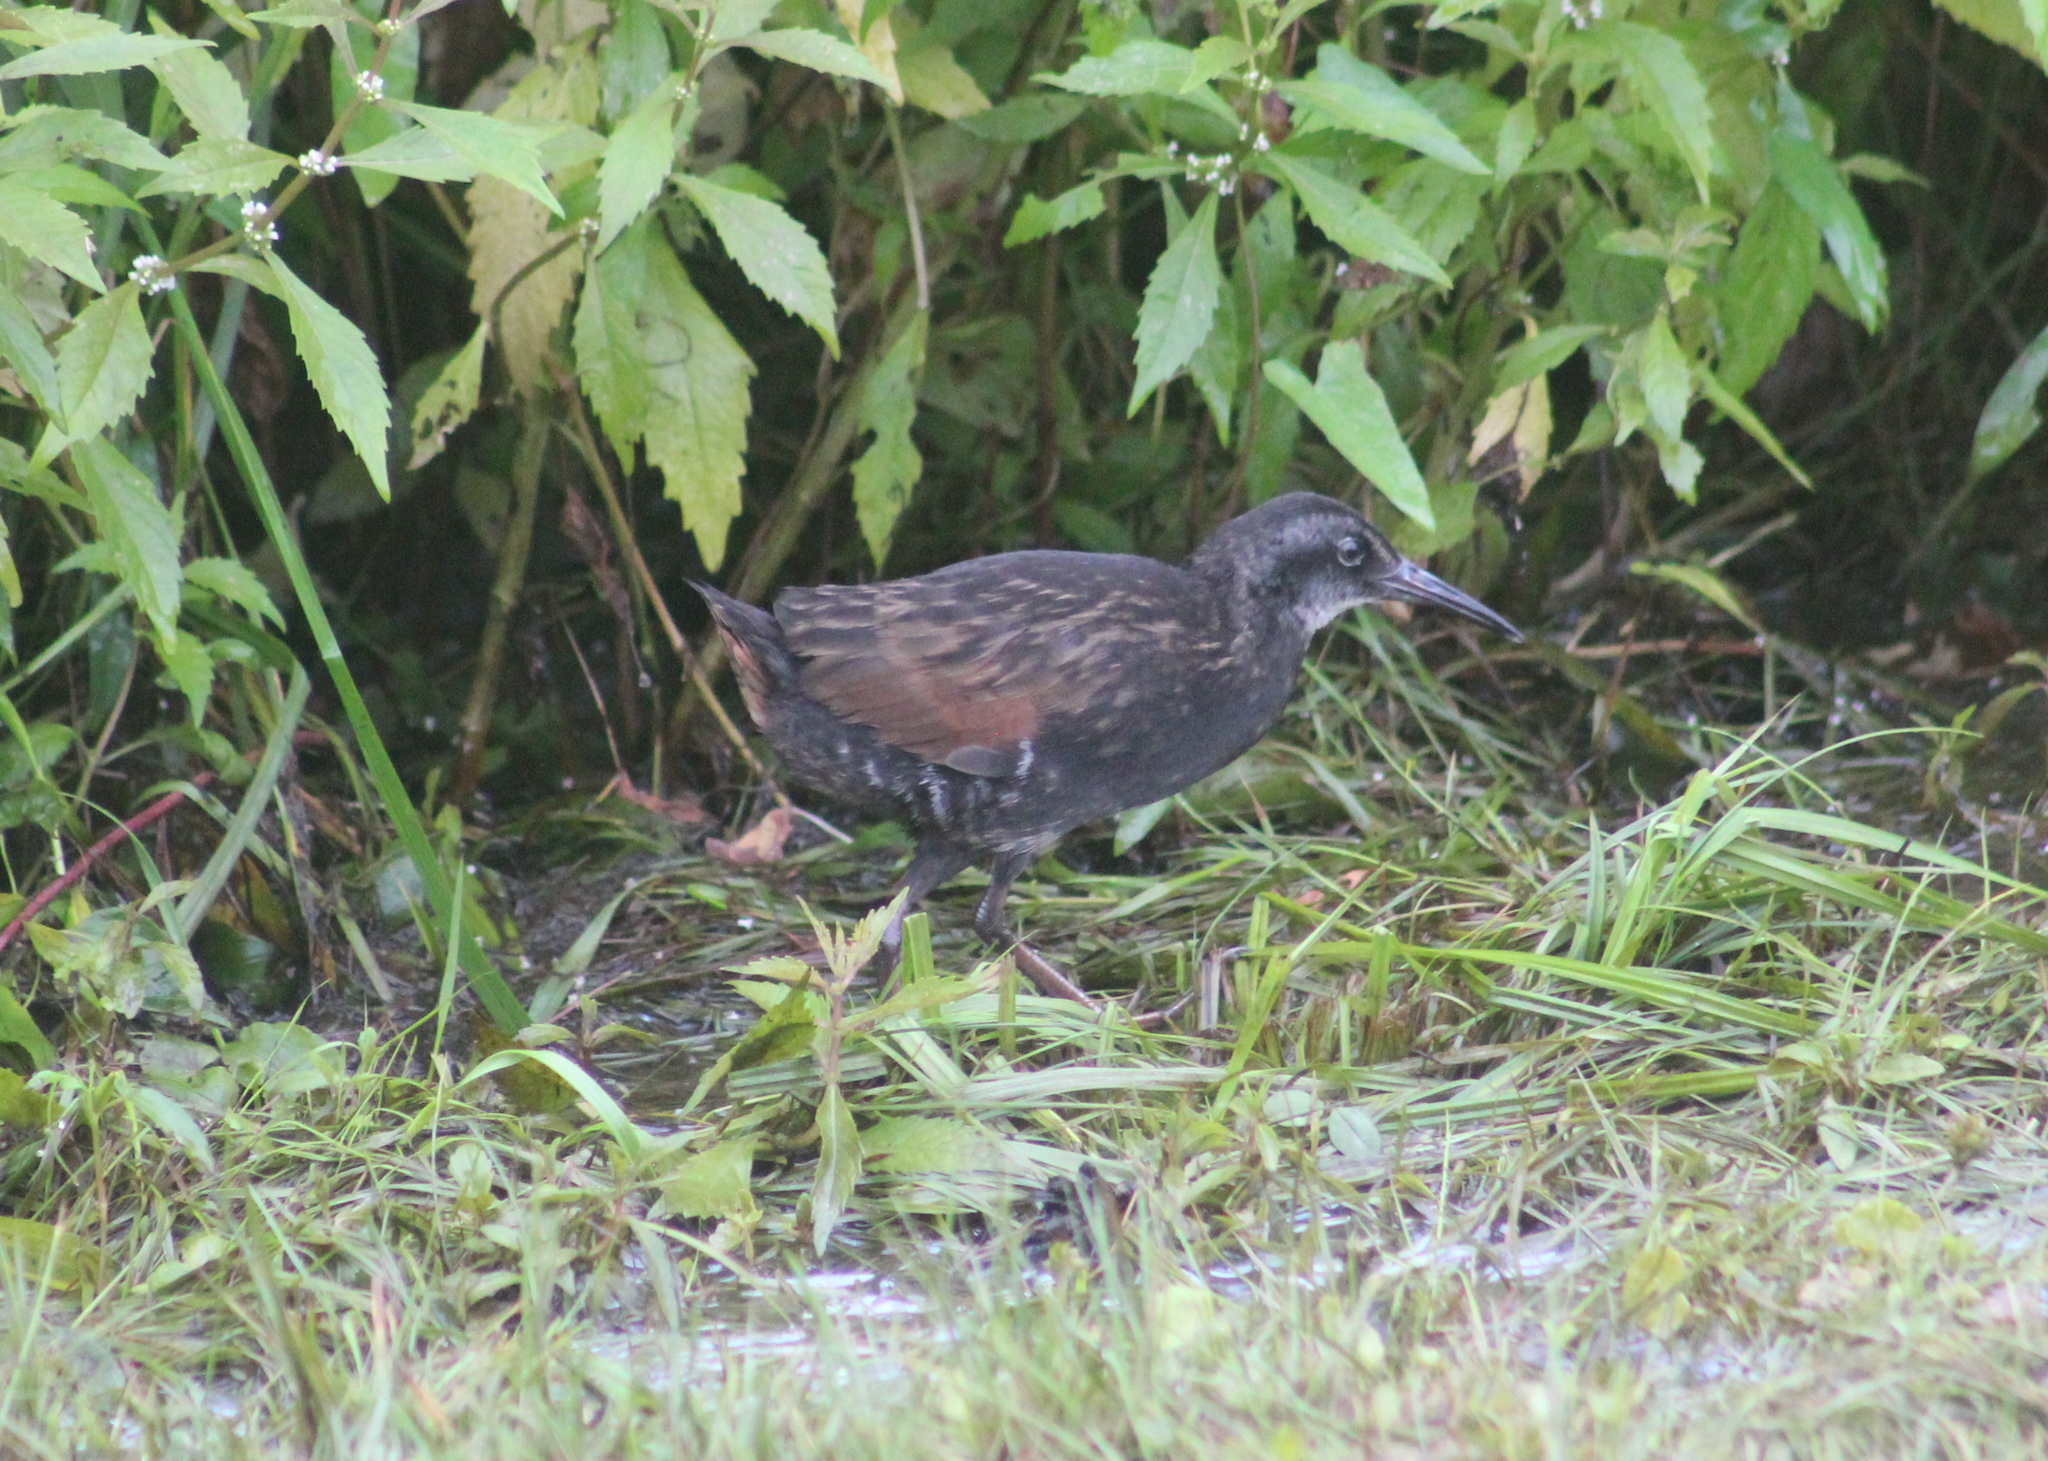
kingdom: Animalia
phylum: Chordata
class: Aves
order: Gruiformes
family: Rallidae
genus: Rallus
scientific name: Rallus limicola
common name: Virginia rail
